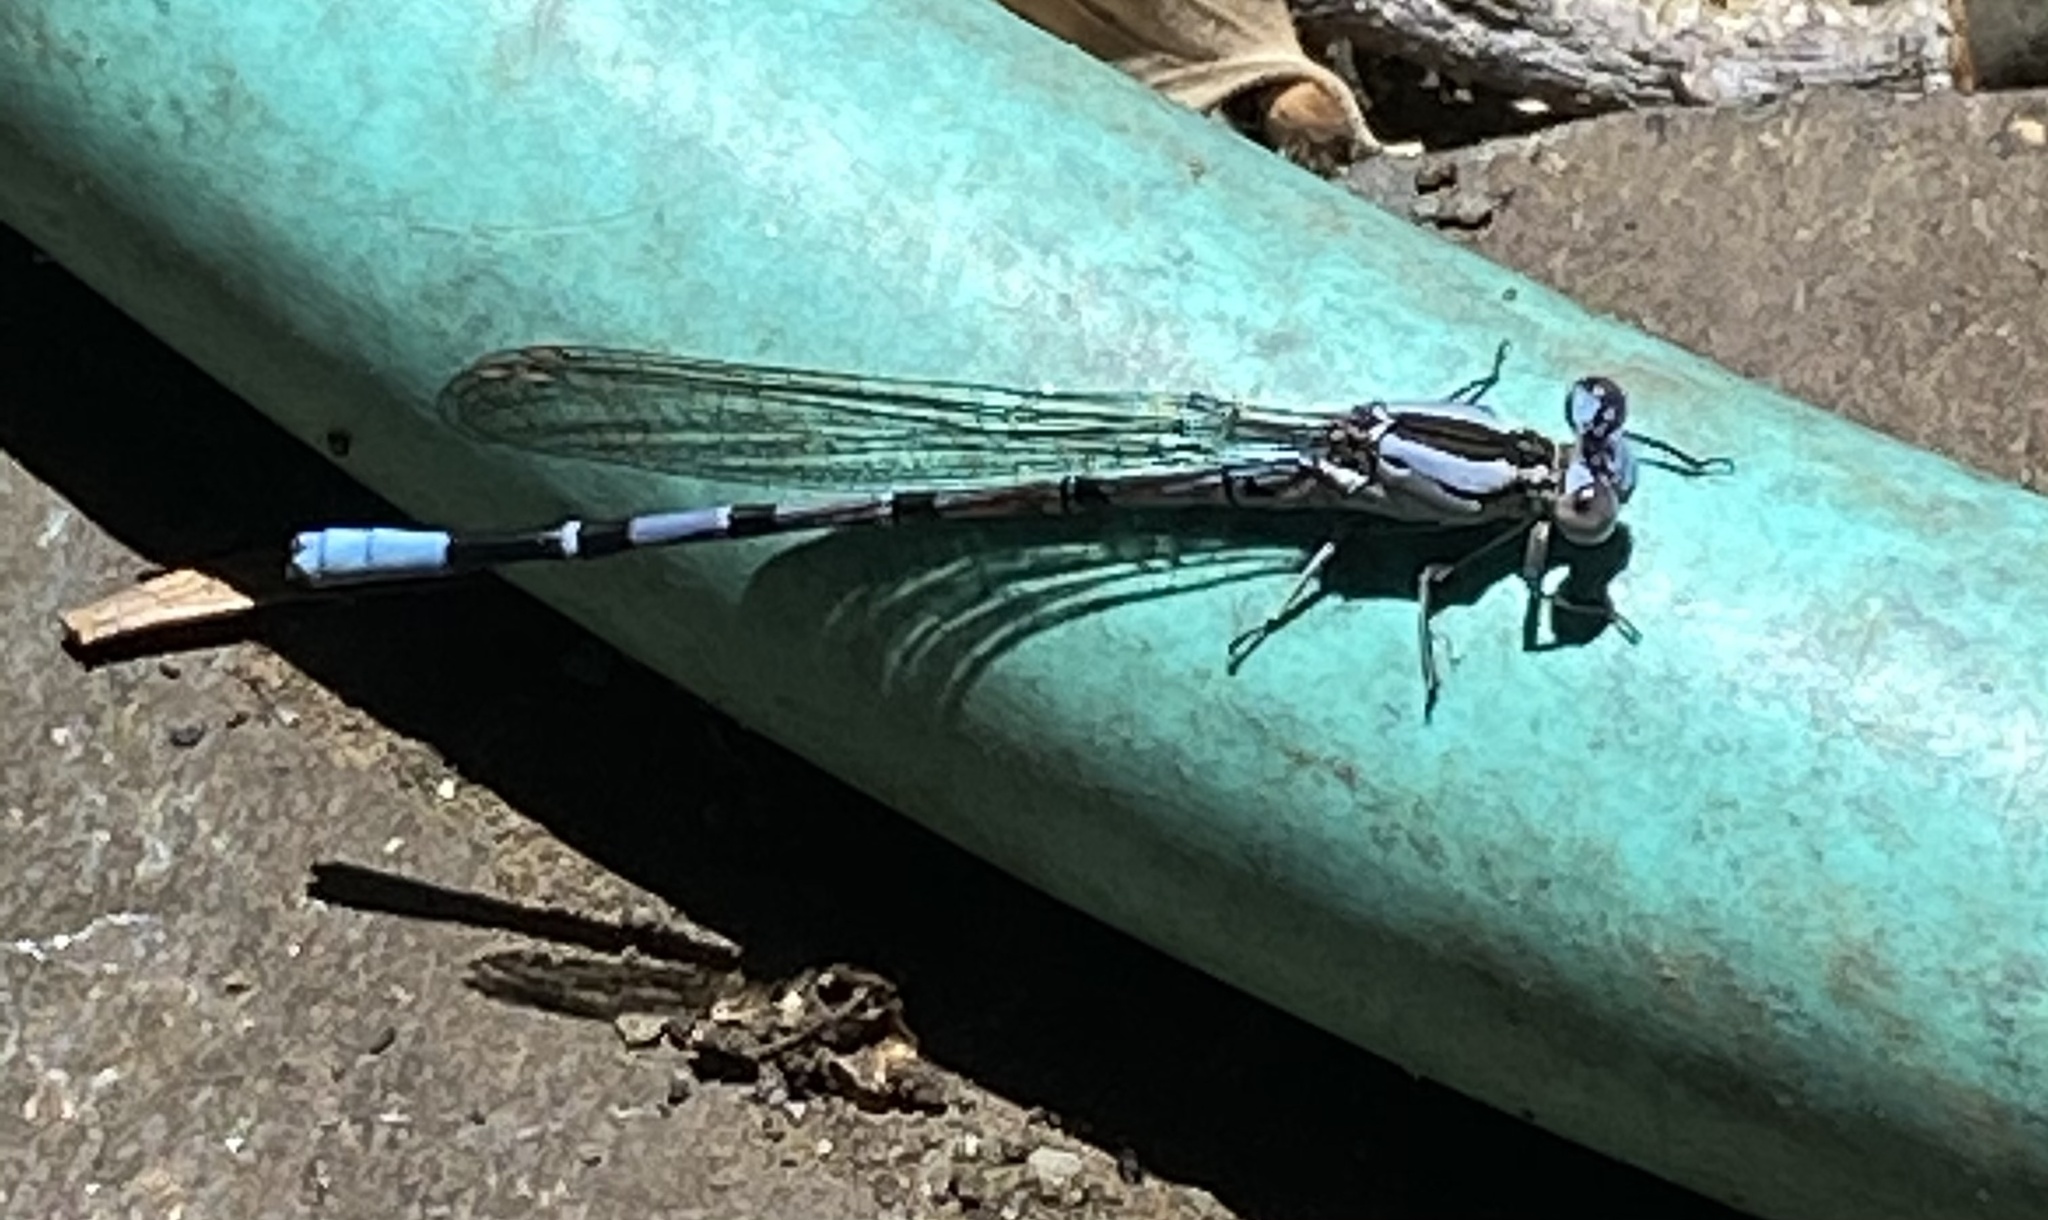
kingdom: Animalia
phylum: Arthropoda
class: Insecta
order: Odonata
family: Coenagrionidae
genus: Argia
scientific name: Argia vivida
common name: Vivid dancer
